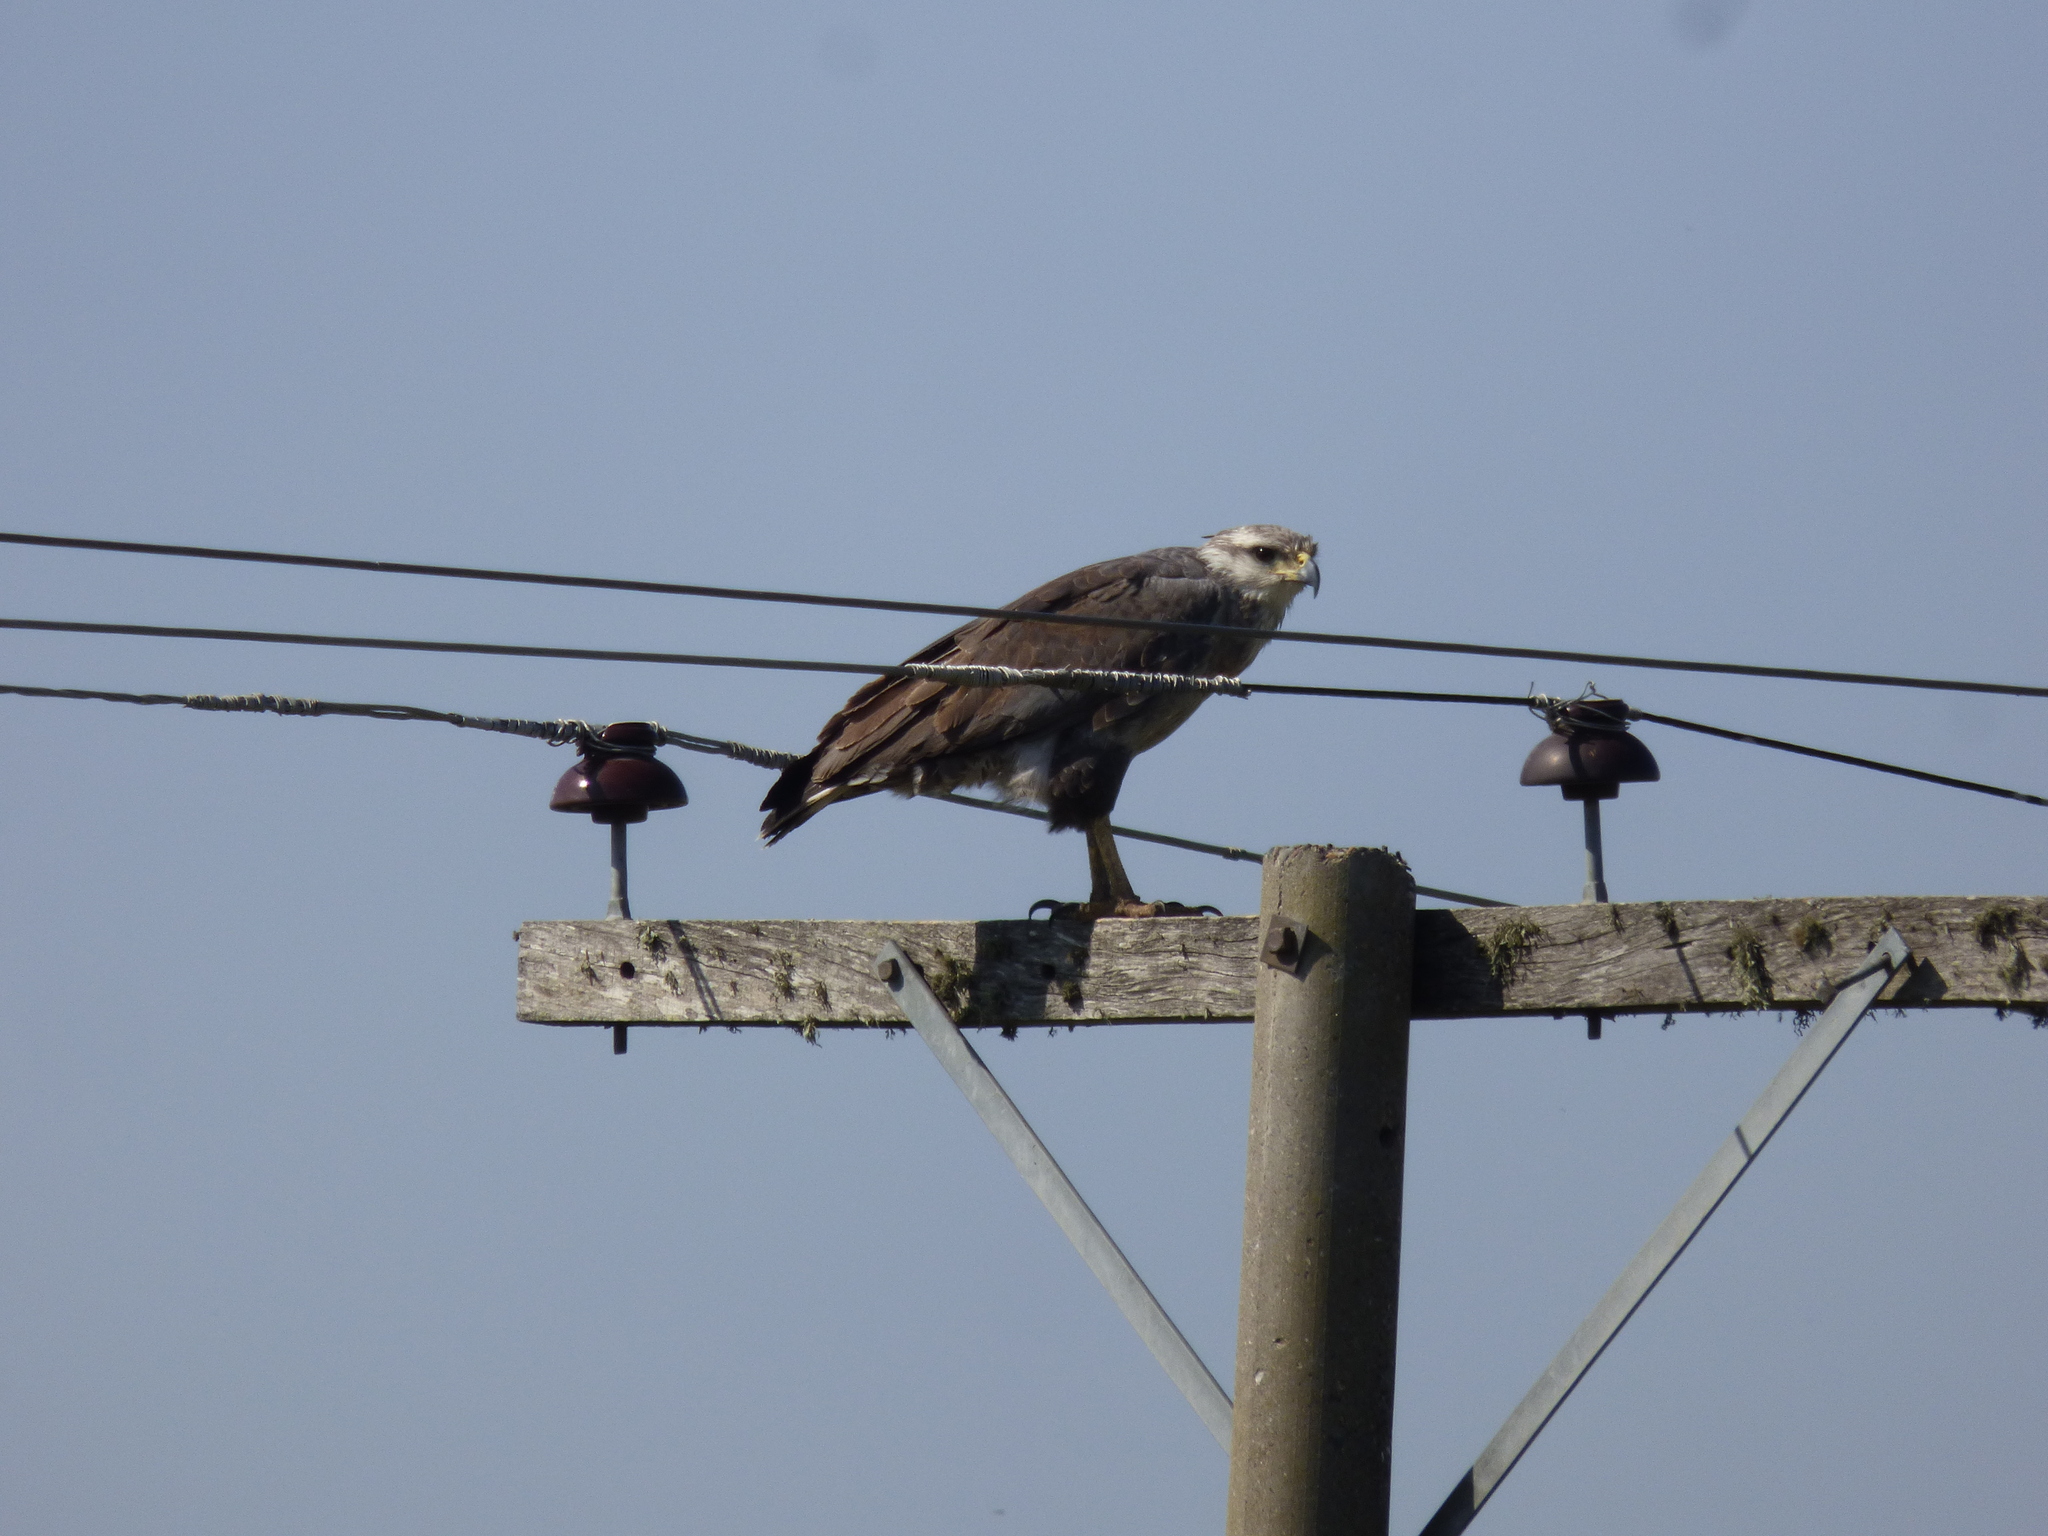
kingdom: Animalia
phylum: Chordata
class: Aves
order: Accipitriformes
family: Accipitridae
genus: Harpyhaliaetus
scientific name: Harpyhaliaetus coronatus
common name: Crowned solitary eagle
